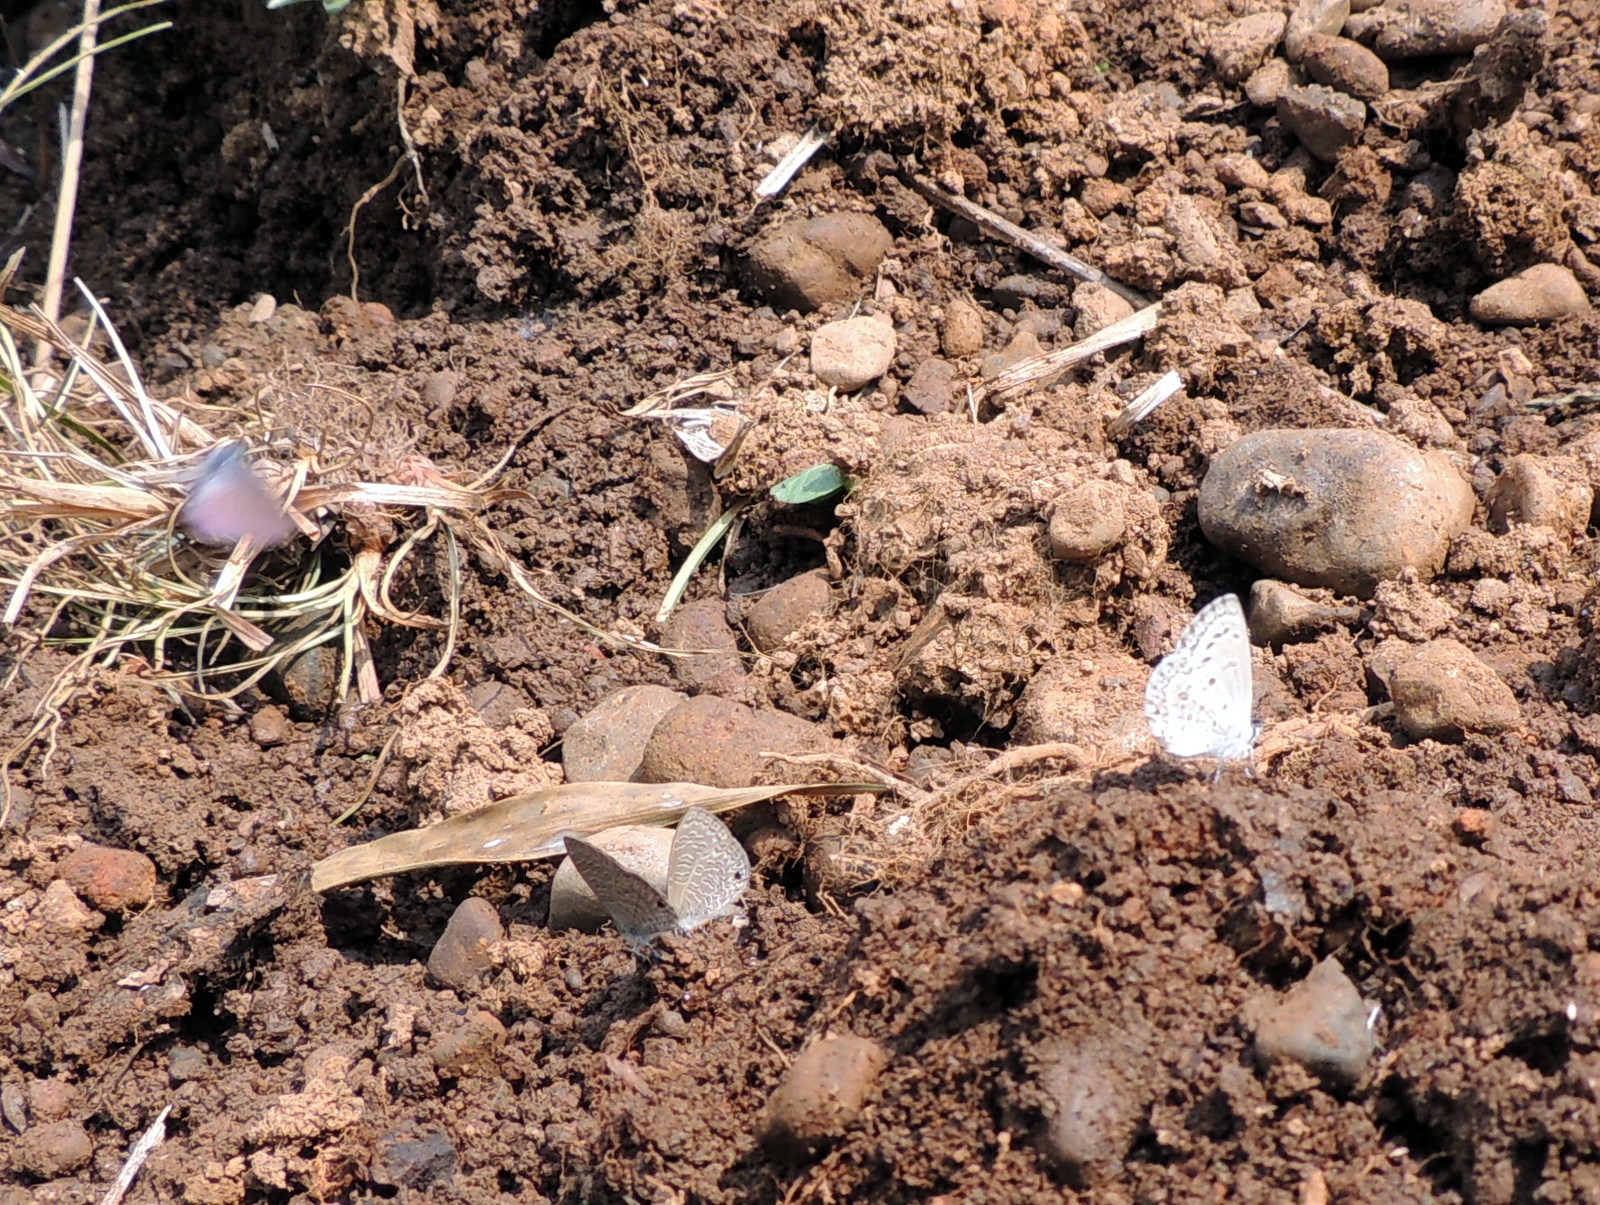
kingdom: Animalia
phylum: Arthropoda
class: Insecta
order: Lepidoptera
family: Lycaenidae
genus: Chilades
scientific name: Chilades laius
